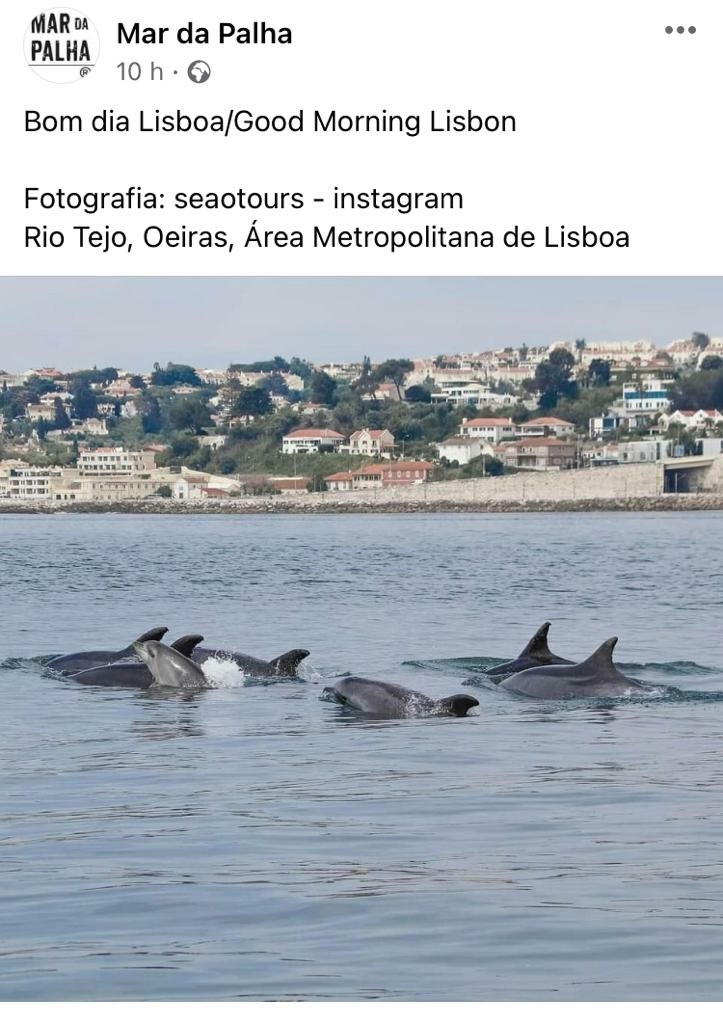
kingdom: Animalia
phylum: Chordata
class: Mammalia
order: Cetacea
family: Delphinidae
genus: Tursiops
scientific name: Tursiops truncatus
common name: Bottlenose dolphin
